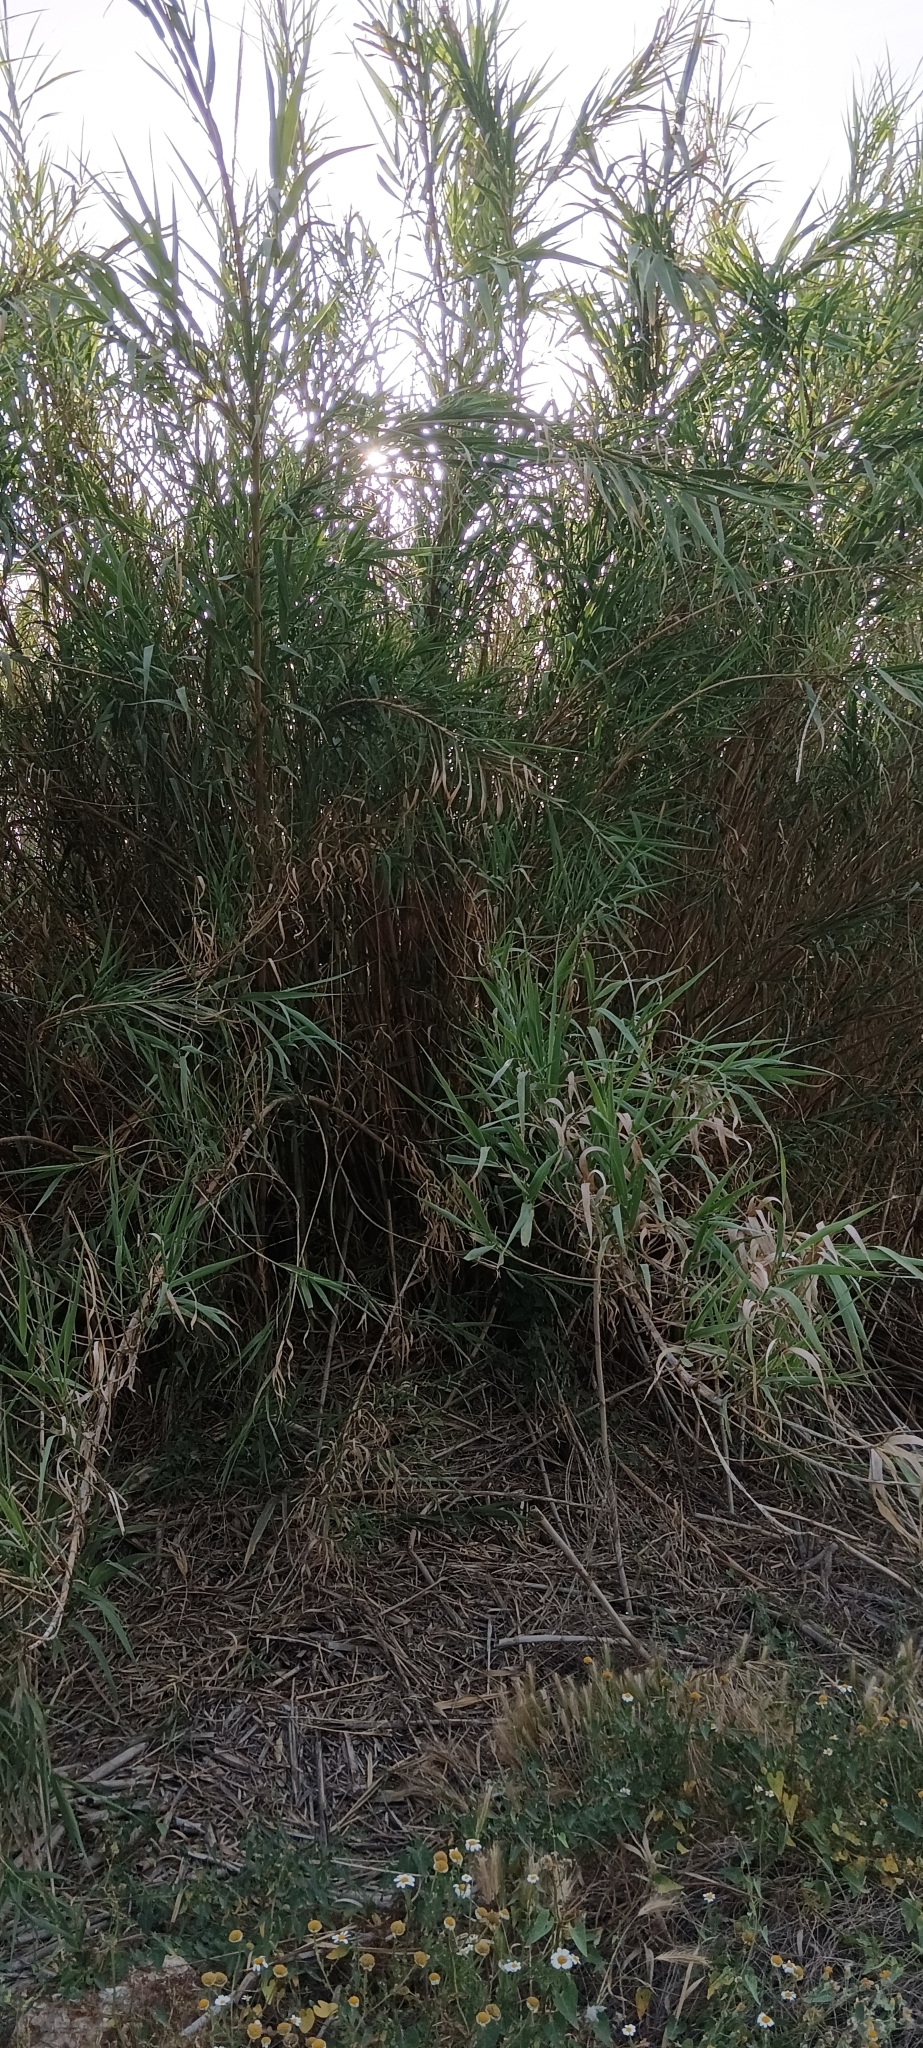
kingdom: Plantae
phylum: Tracheophyta
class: Liliopsida
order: Poales
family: Poaceae
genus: Arundo
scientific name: Arundo donax
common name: Giant reed
